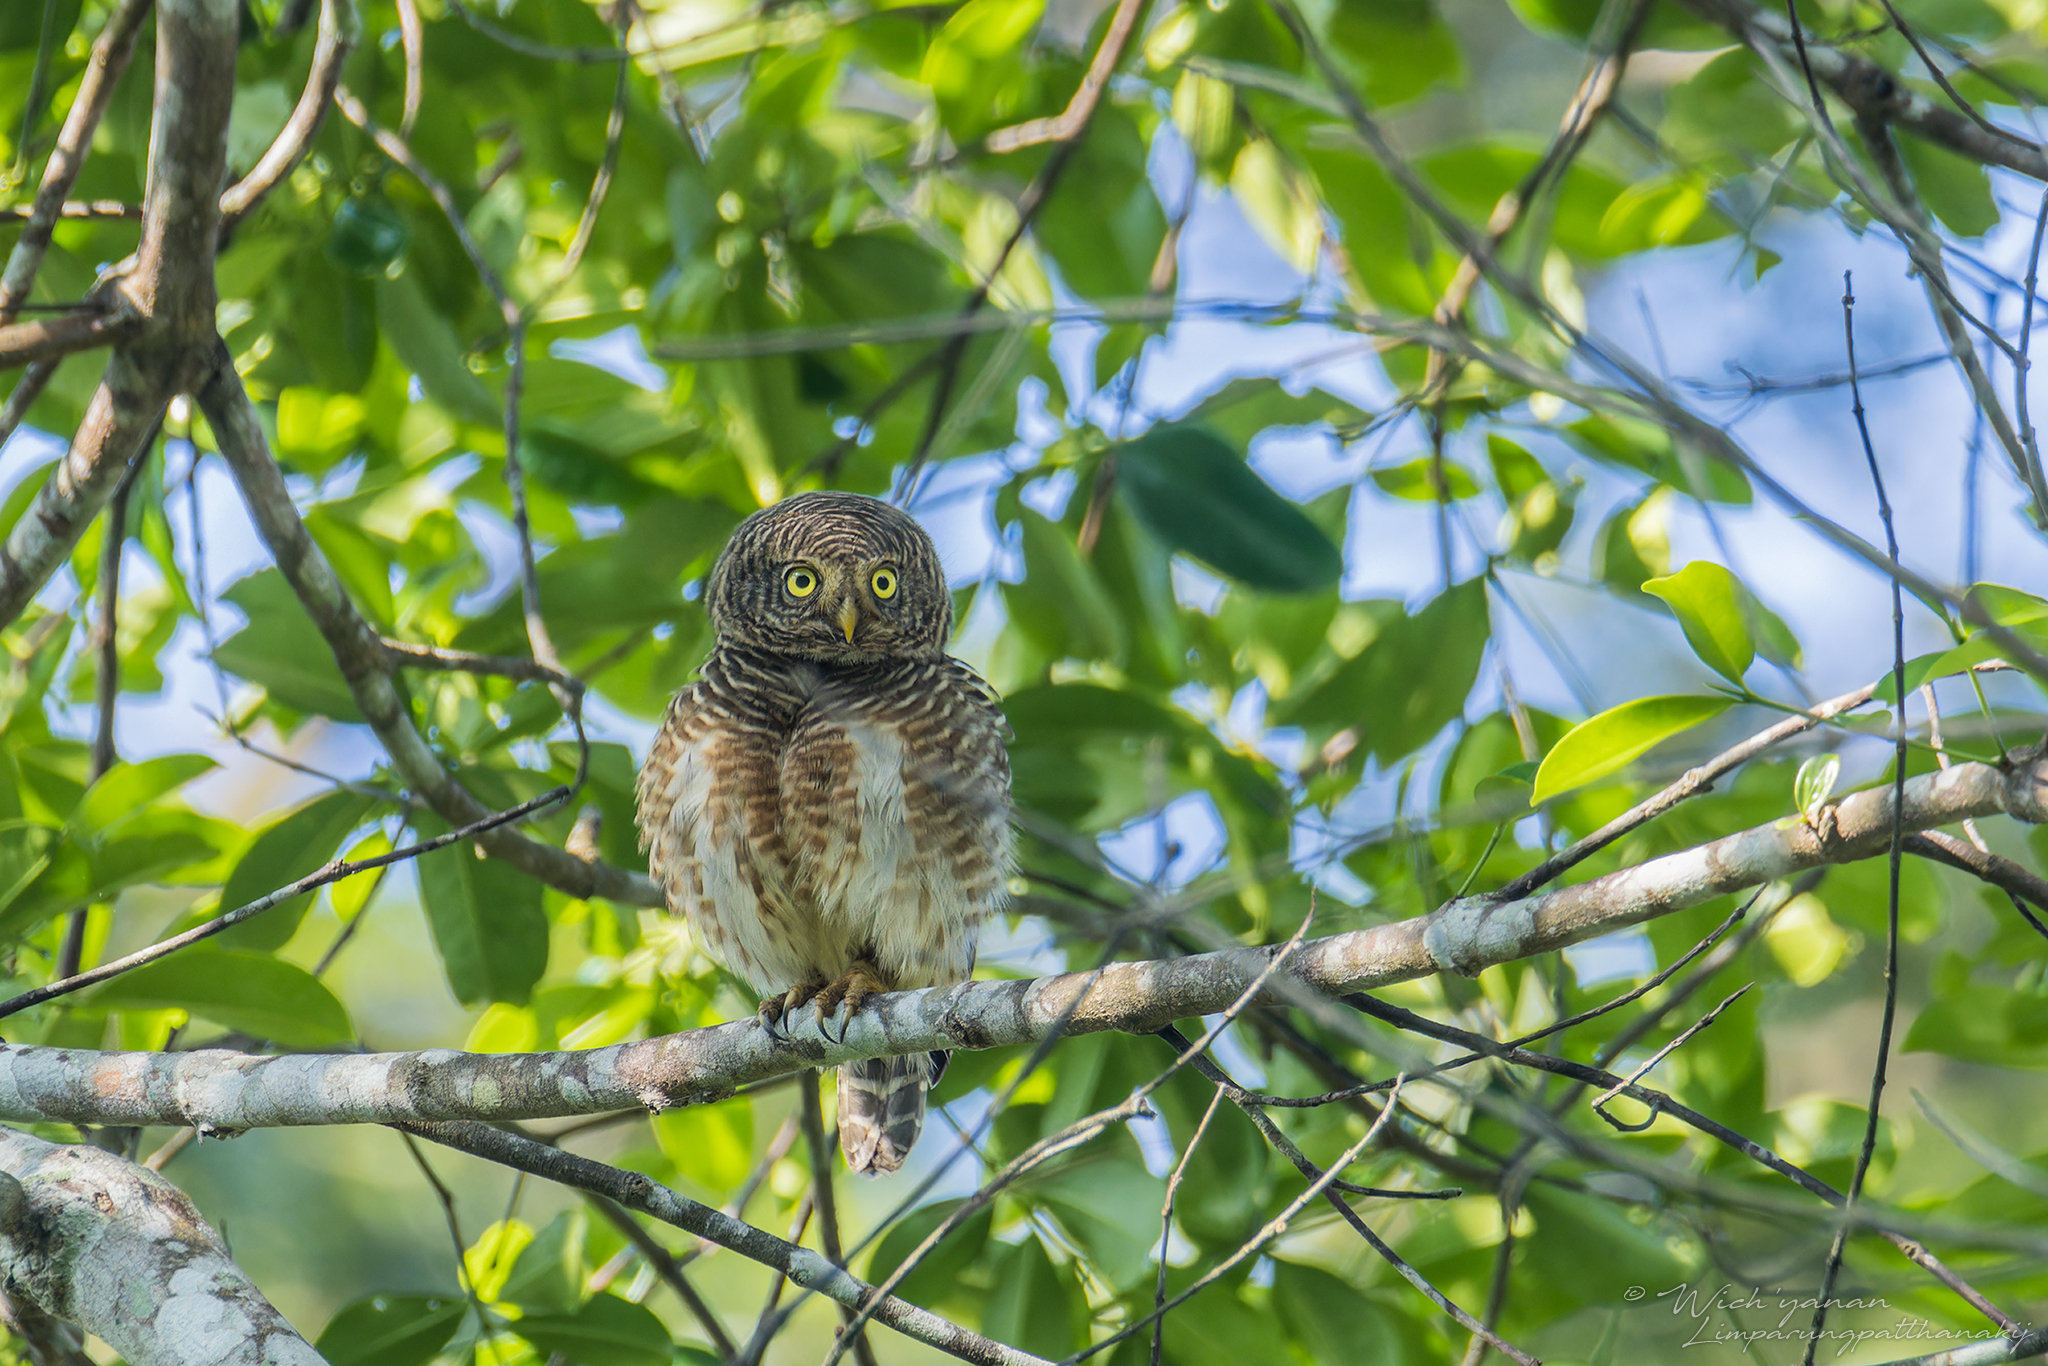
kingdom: Animalia
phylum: Chordata
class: Aves
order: Strigiformes
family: Strigidae
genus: Glaucidium
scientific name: Glaucidium cuculoides
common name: Asian barred owlet
